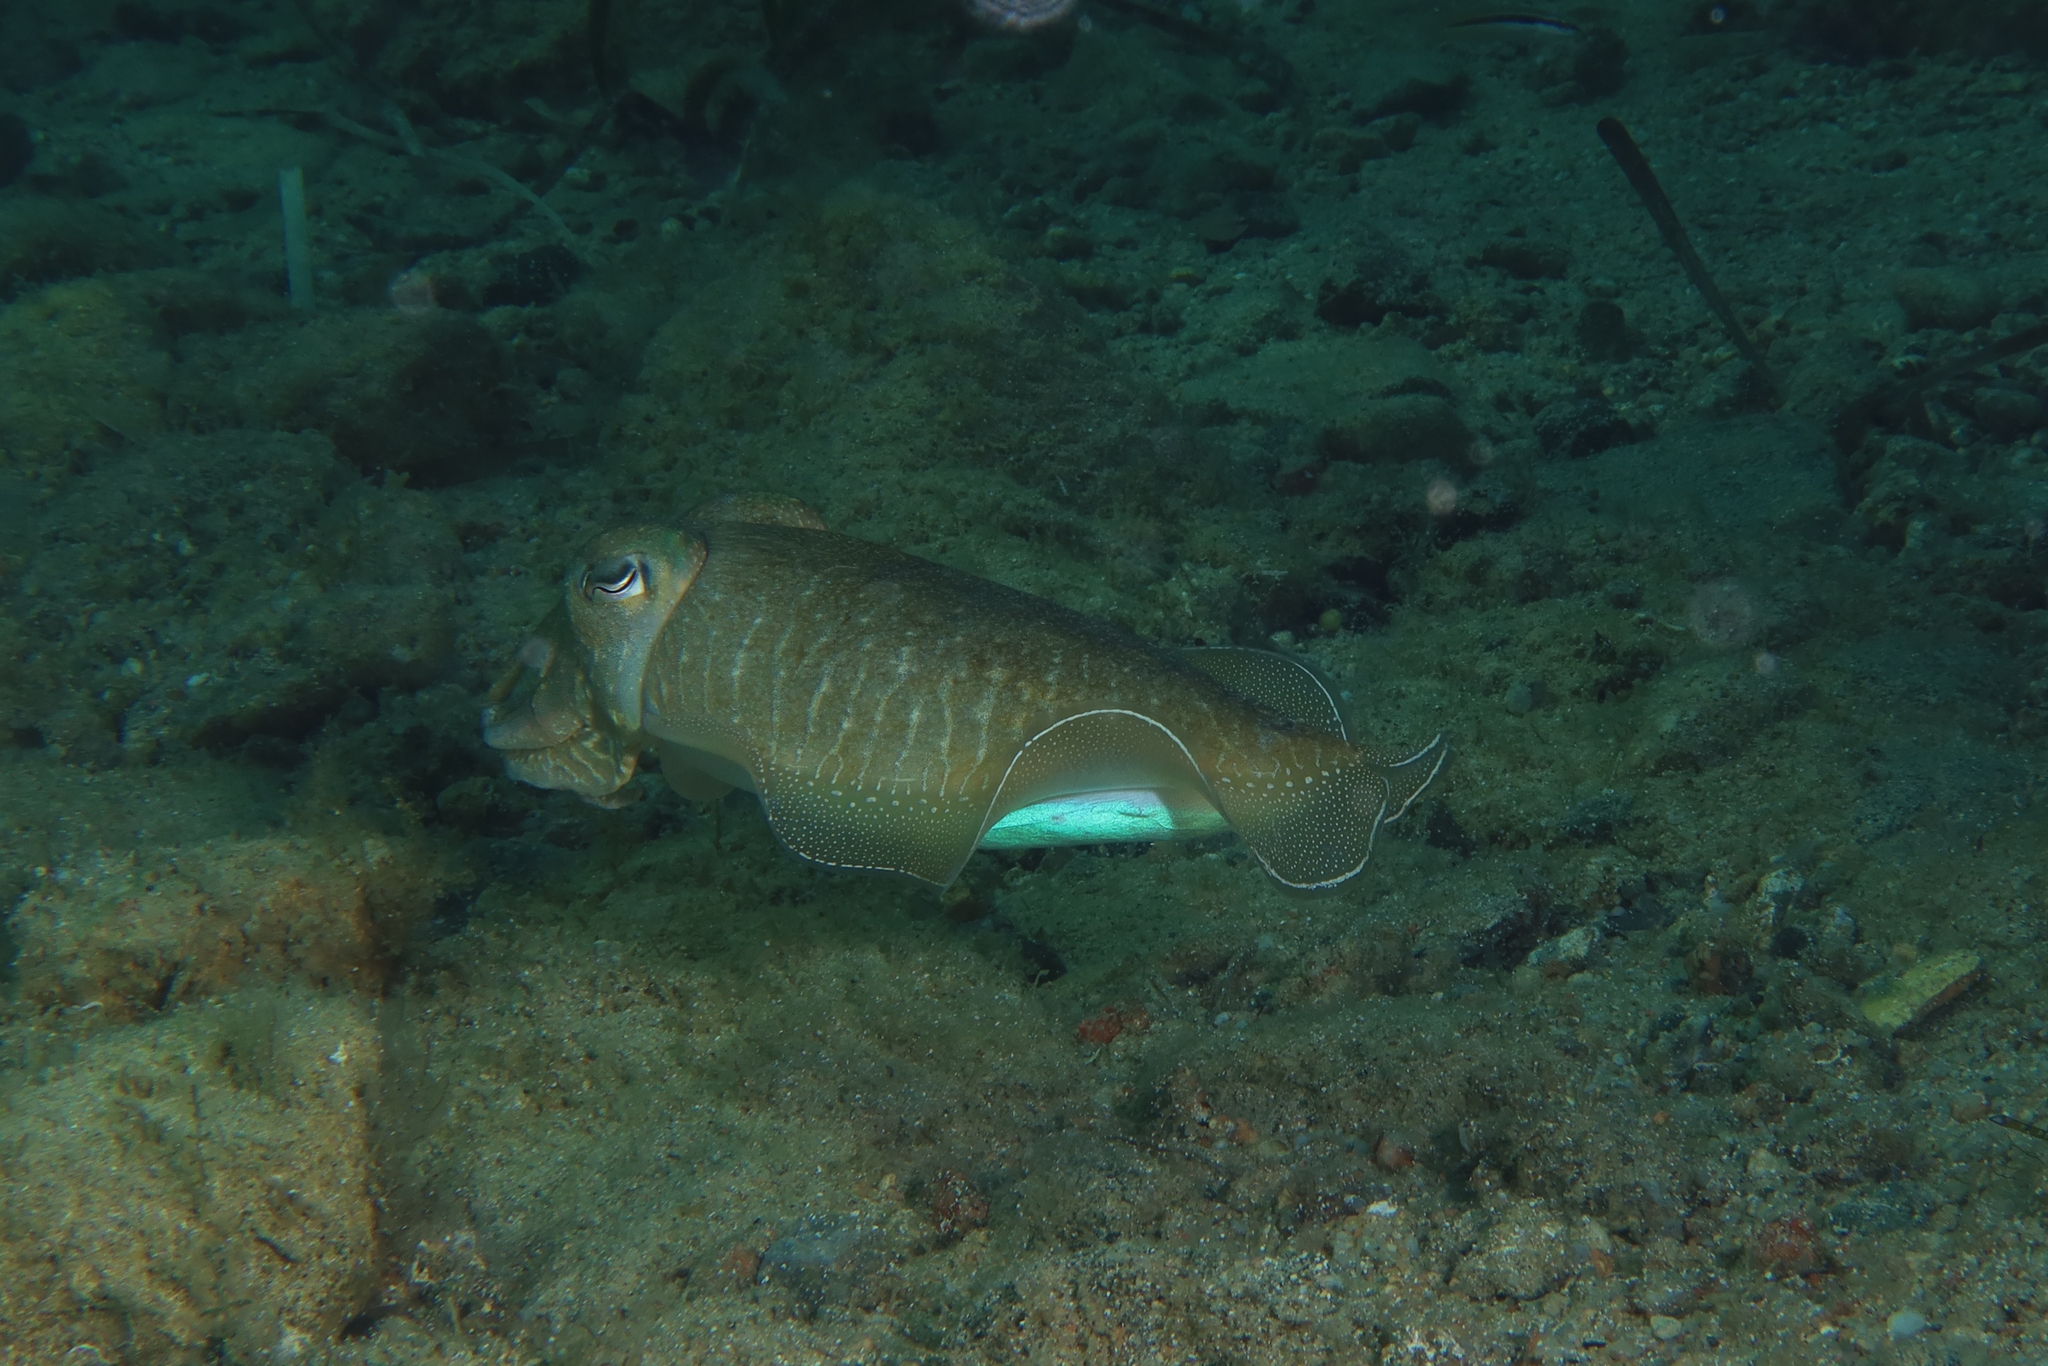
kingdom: Animalia
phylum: Mollusca
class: Cephalopoda
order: Sepiida
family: Sepiidae
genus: Sepia
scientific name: Sepia officinalis
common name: Common cuttlefish
